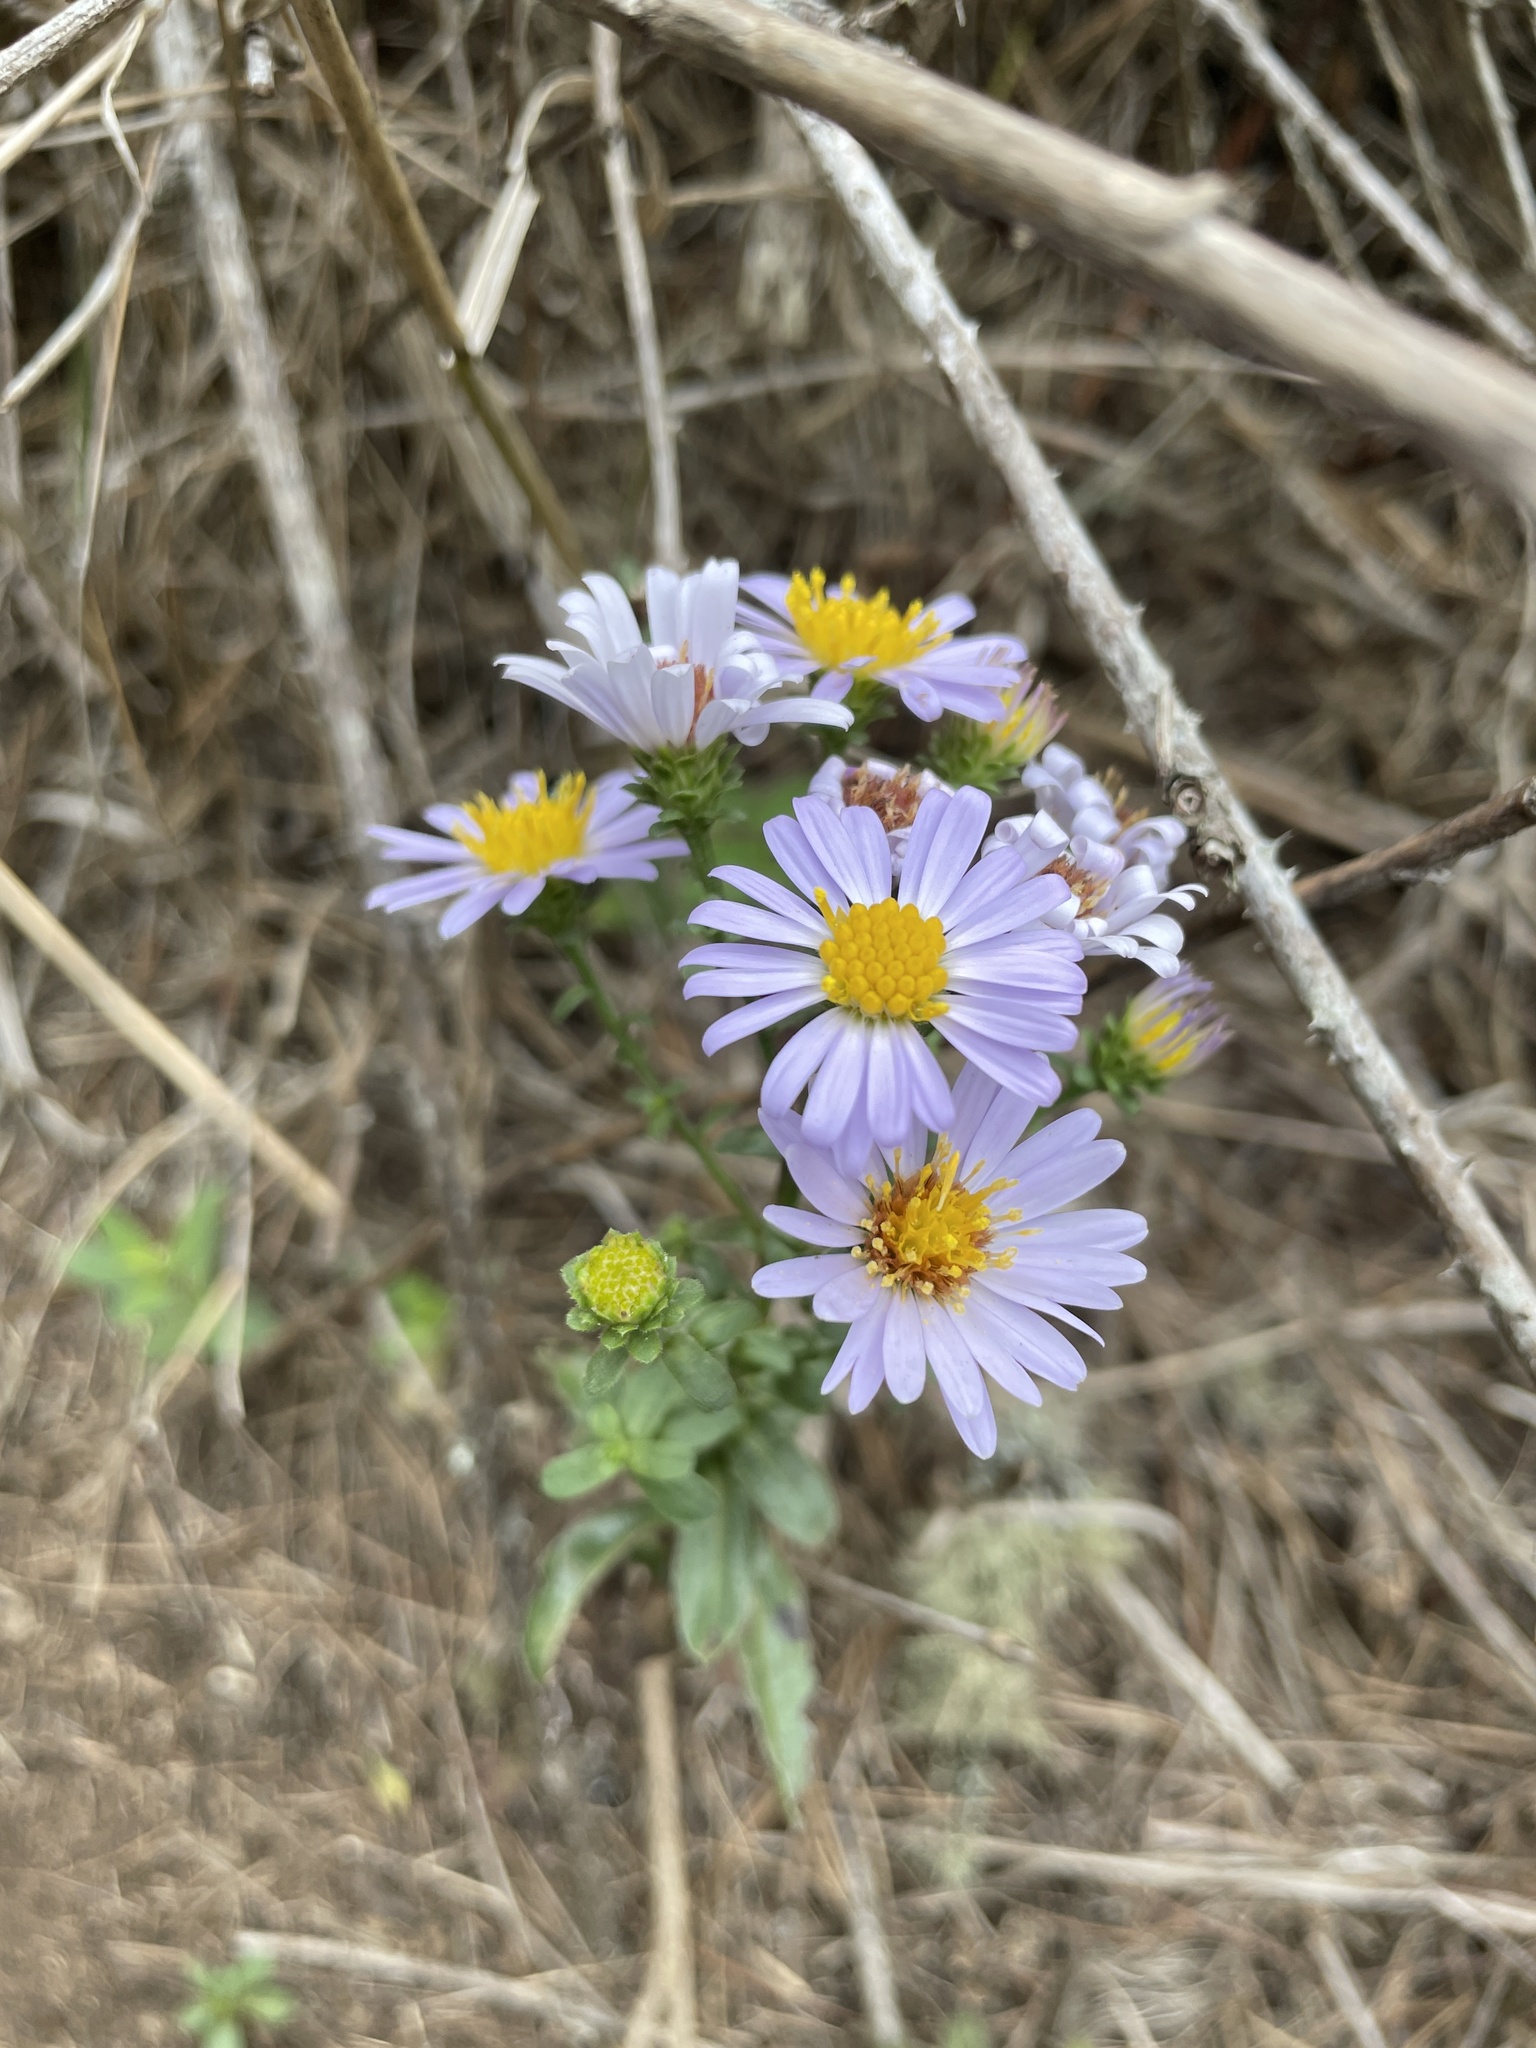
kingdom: Plantae
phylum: Tracheophyta
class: Magnoliopsida
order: Asterales
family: Asteraceae
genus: Symphyotrichum
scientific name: Symphyotrichum chilense
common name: Pacific aster
